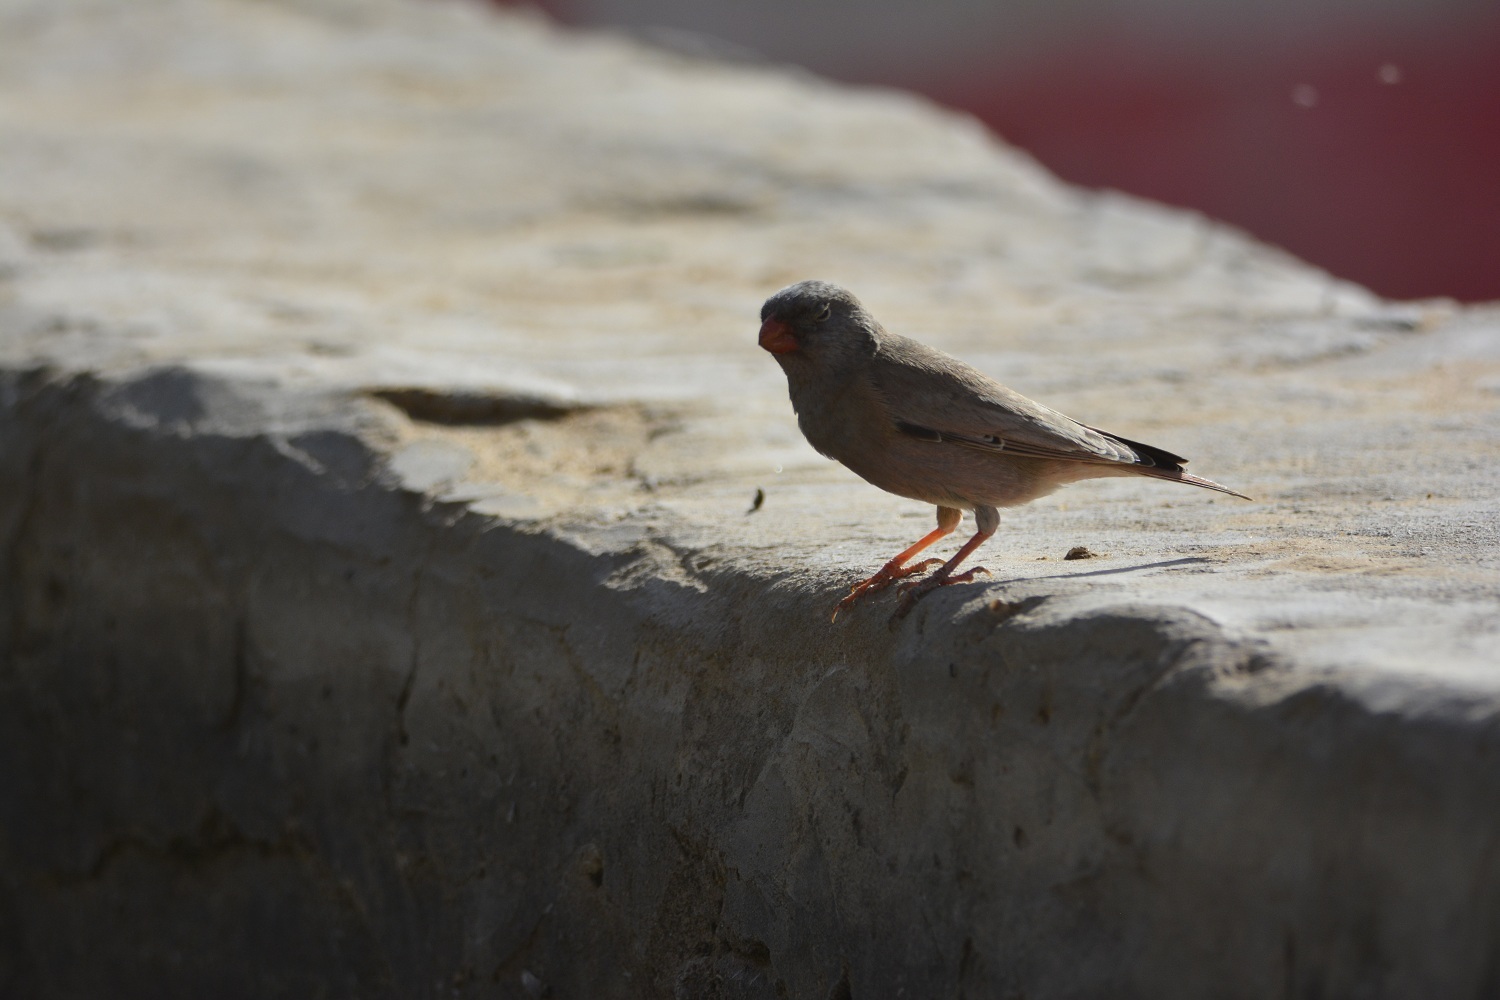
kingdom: Animalia
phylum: Chordata
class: Aves
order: Passeriformes
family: Fringillidae
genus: Bucanetes
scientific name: Bucanetes githagineus
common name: Trumpeter finch
